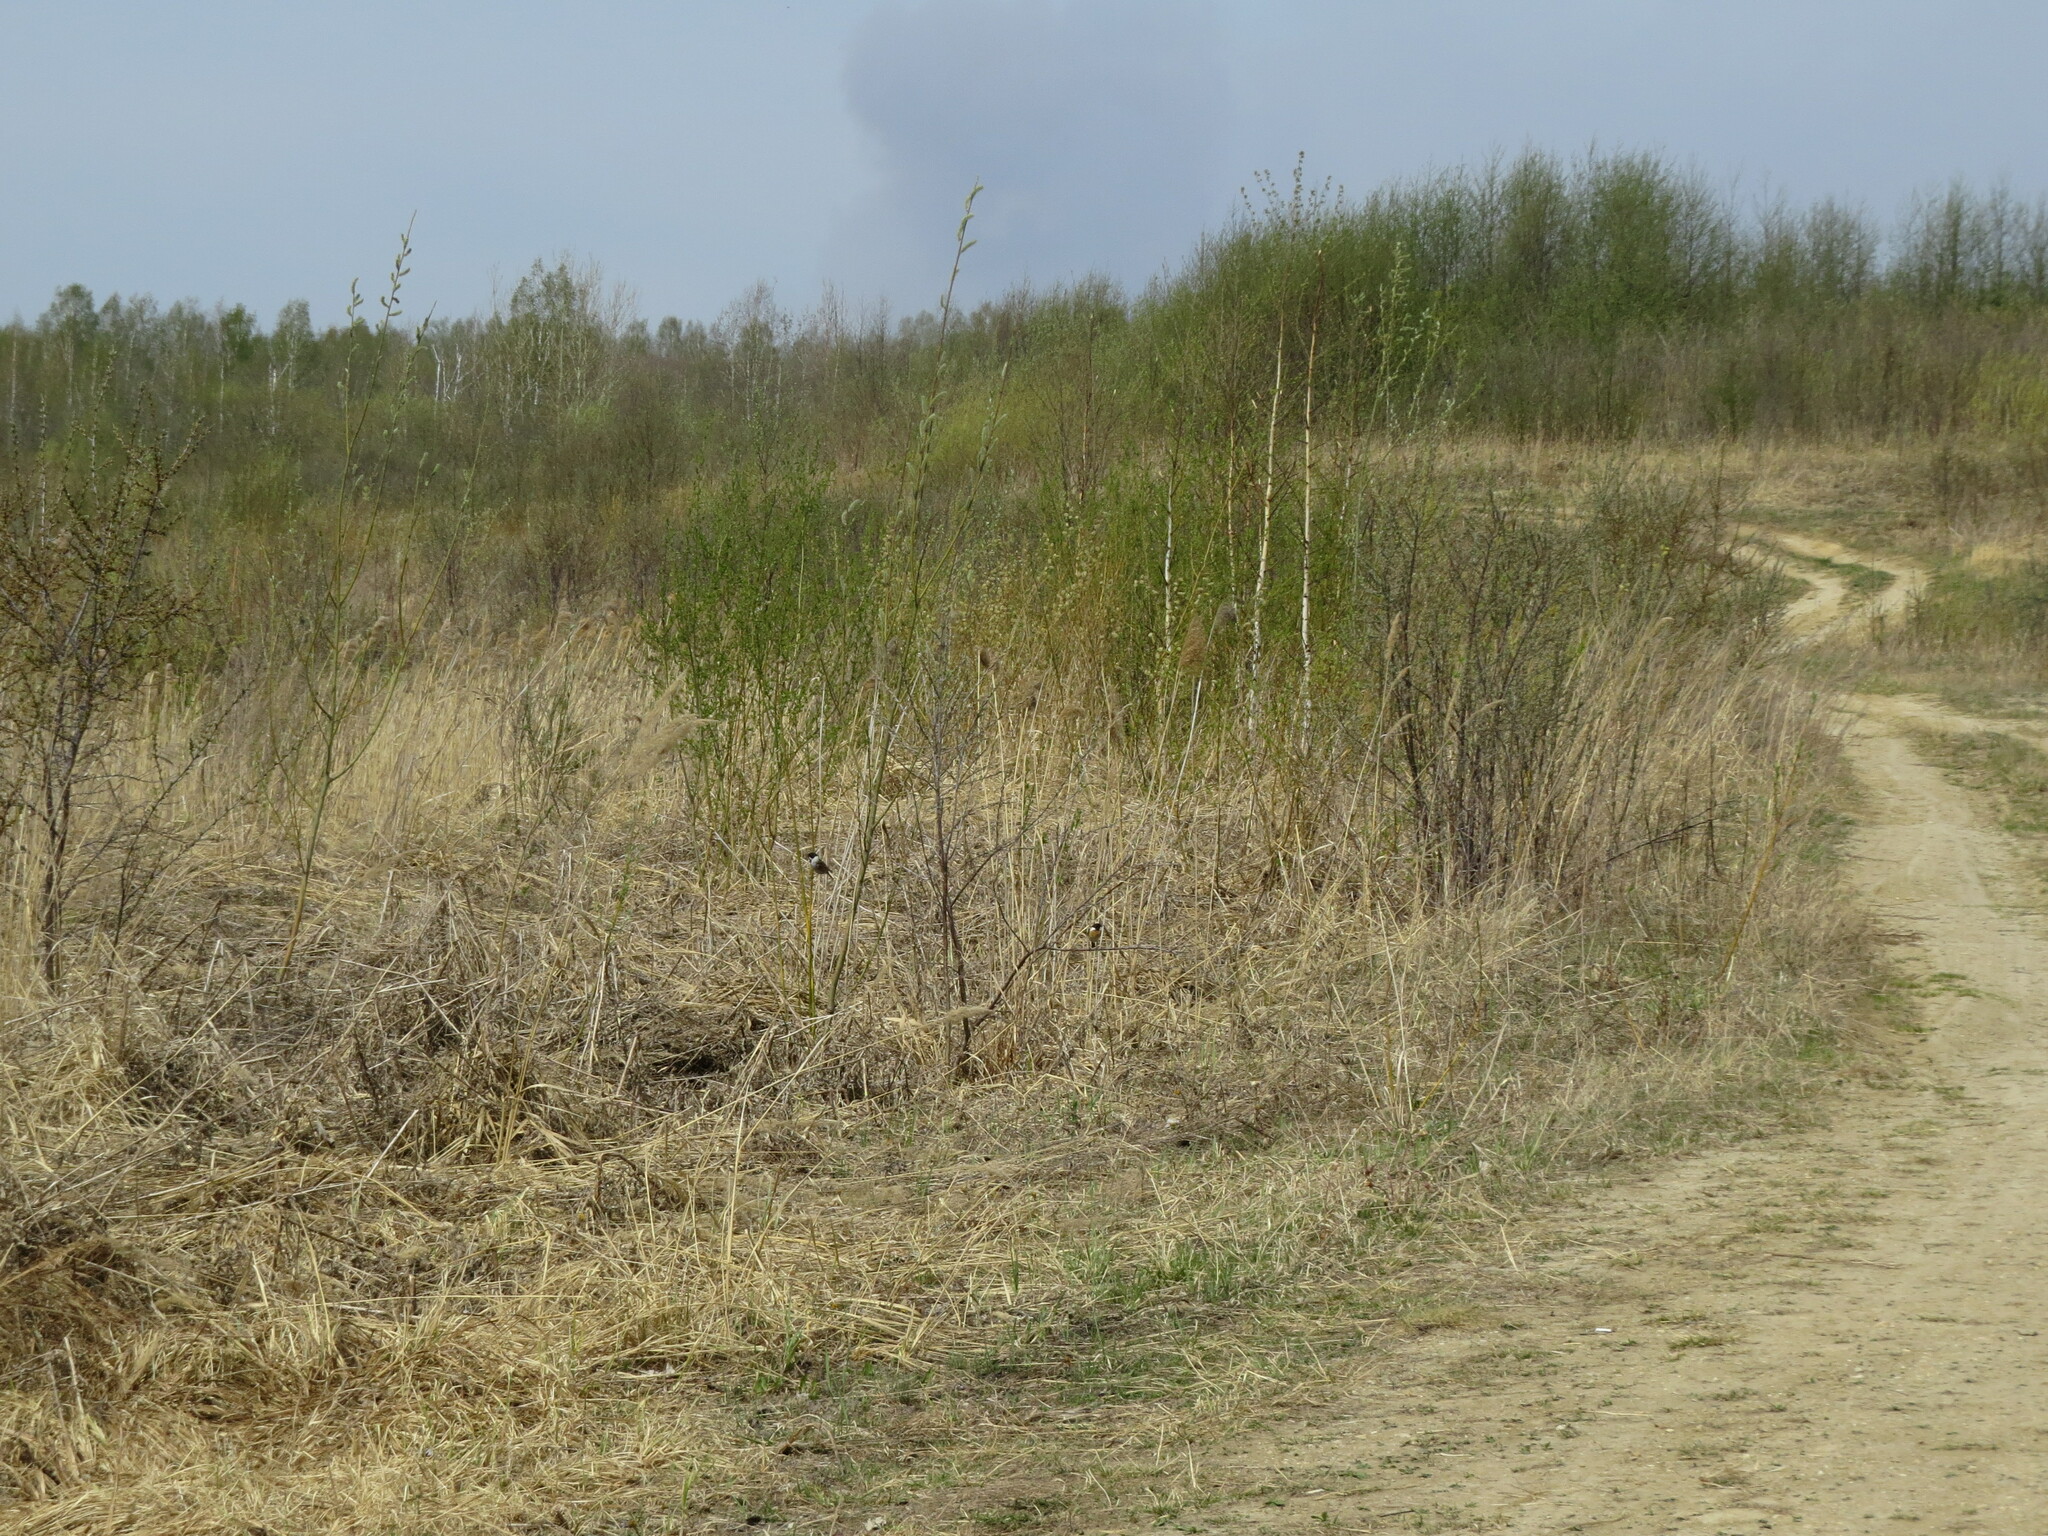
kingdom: Animalia
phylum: Chordata
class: Aves
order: Passeriformes
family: Emberizidae
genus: Emberiza
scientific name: Emberiza schoeniclus
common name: Reed bunting
